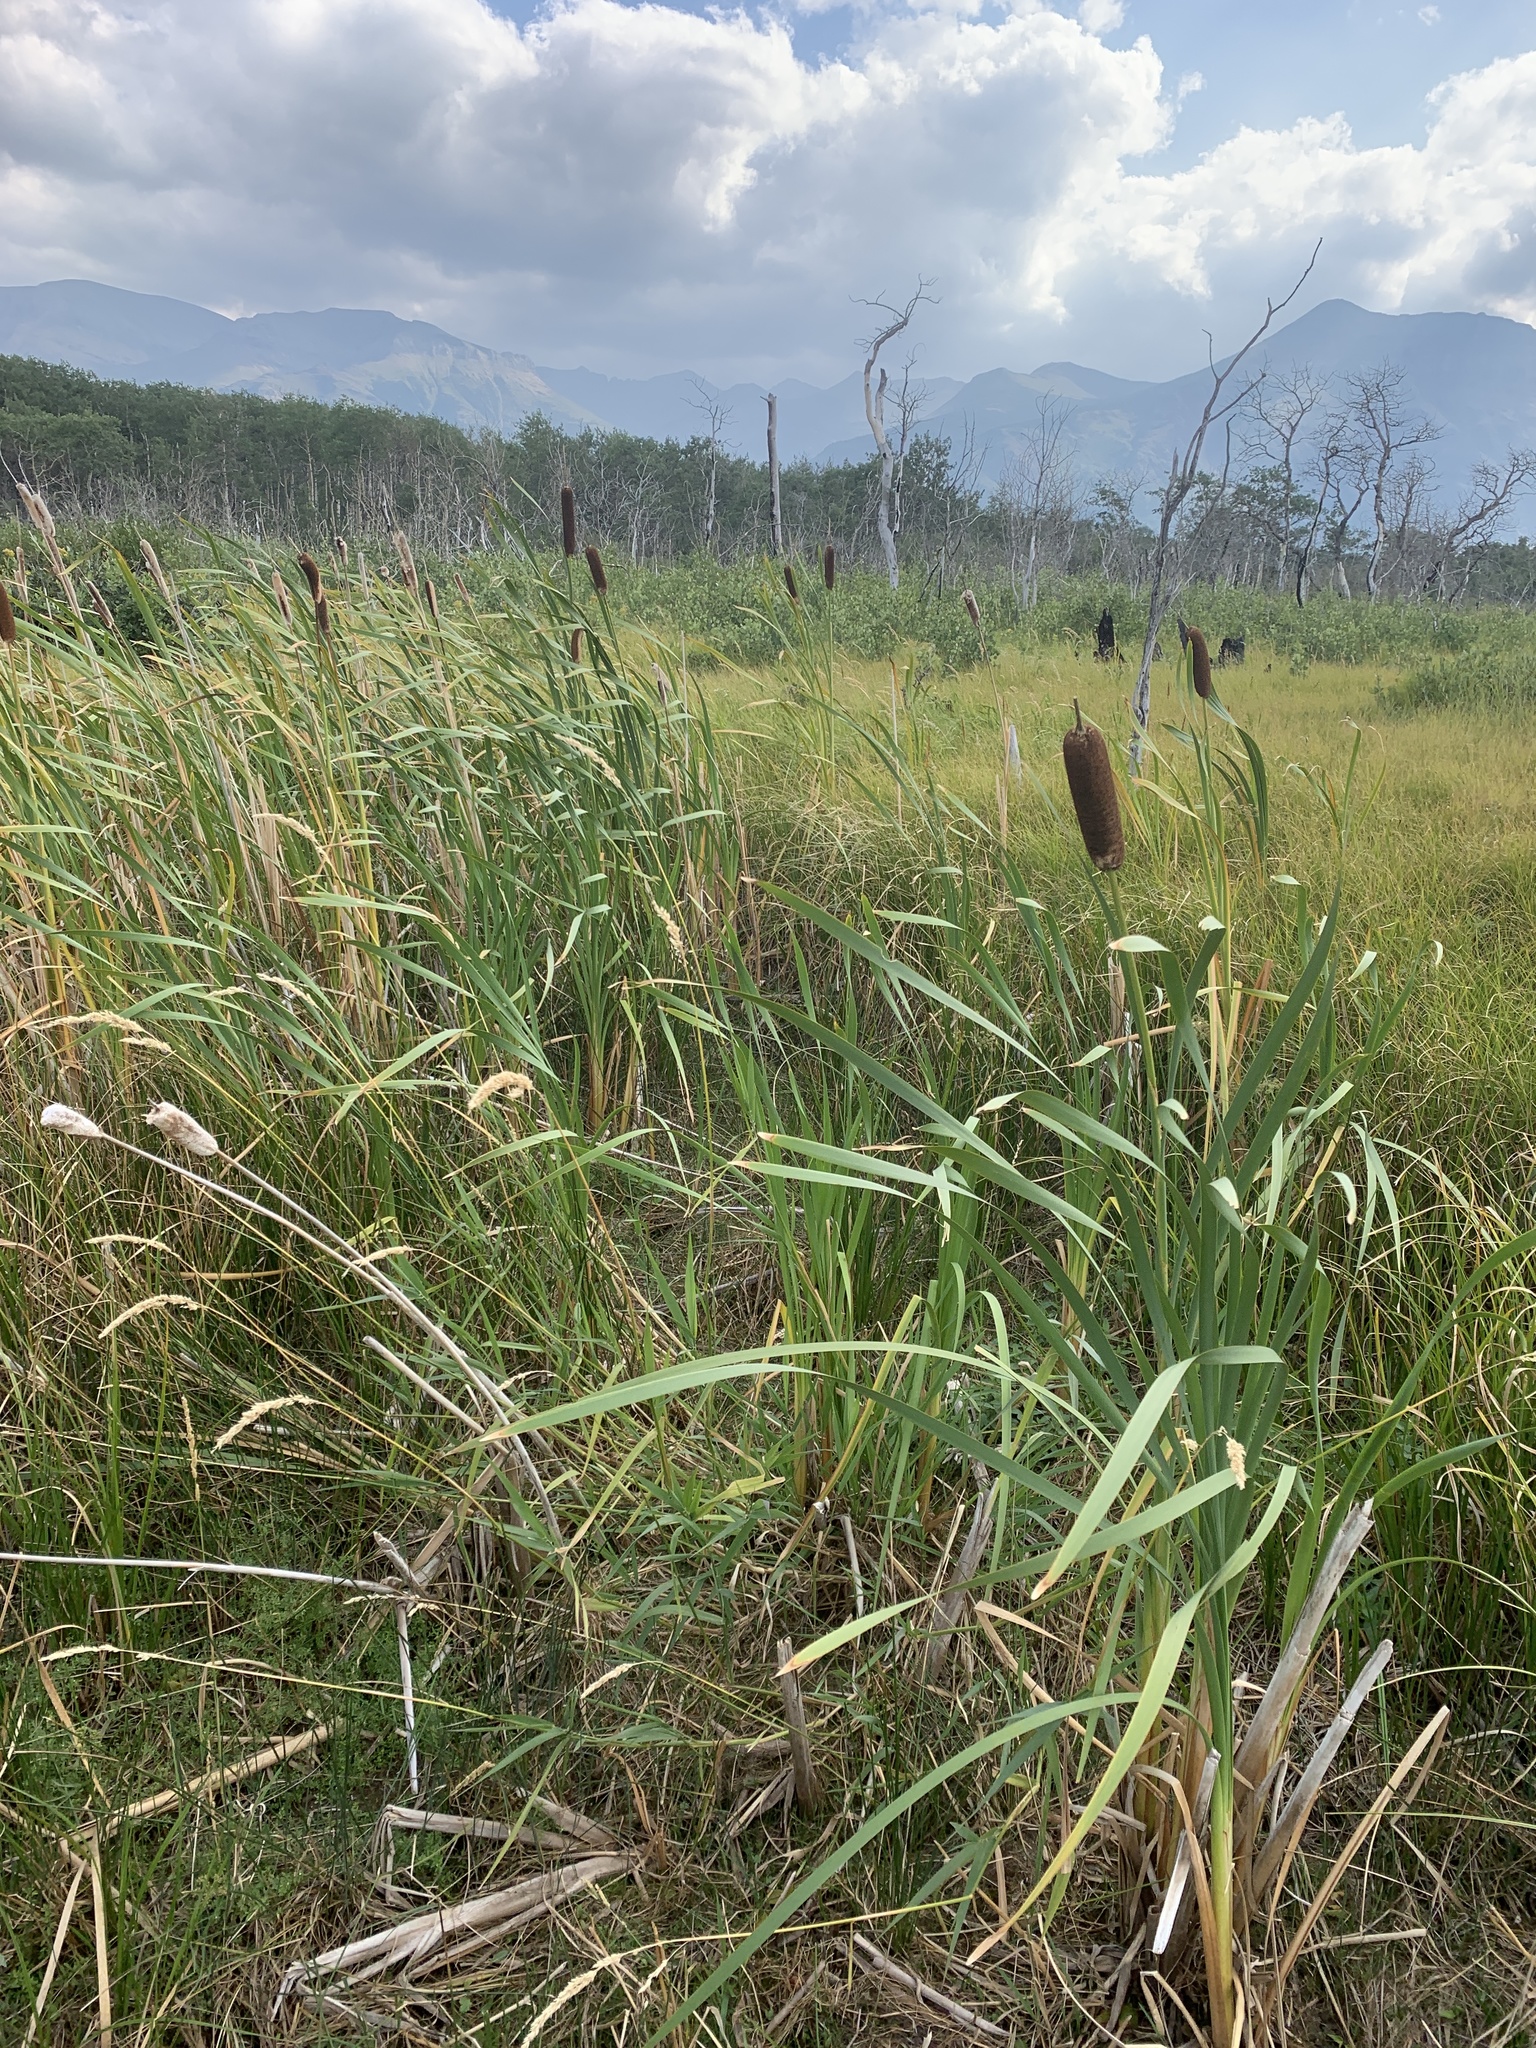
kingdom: Plantae
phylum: Tracheophyta
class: Liliopsida
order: Poales
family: Typhaceae
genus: Typha
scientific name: Typha latifolia
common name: Broadleaf cattail
